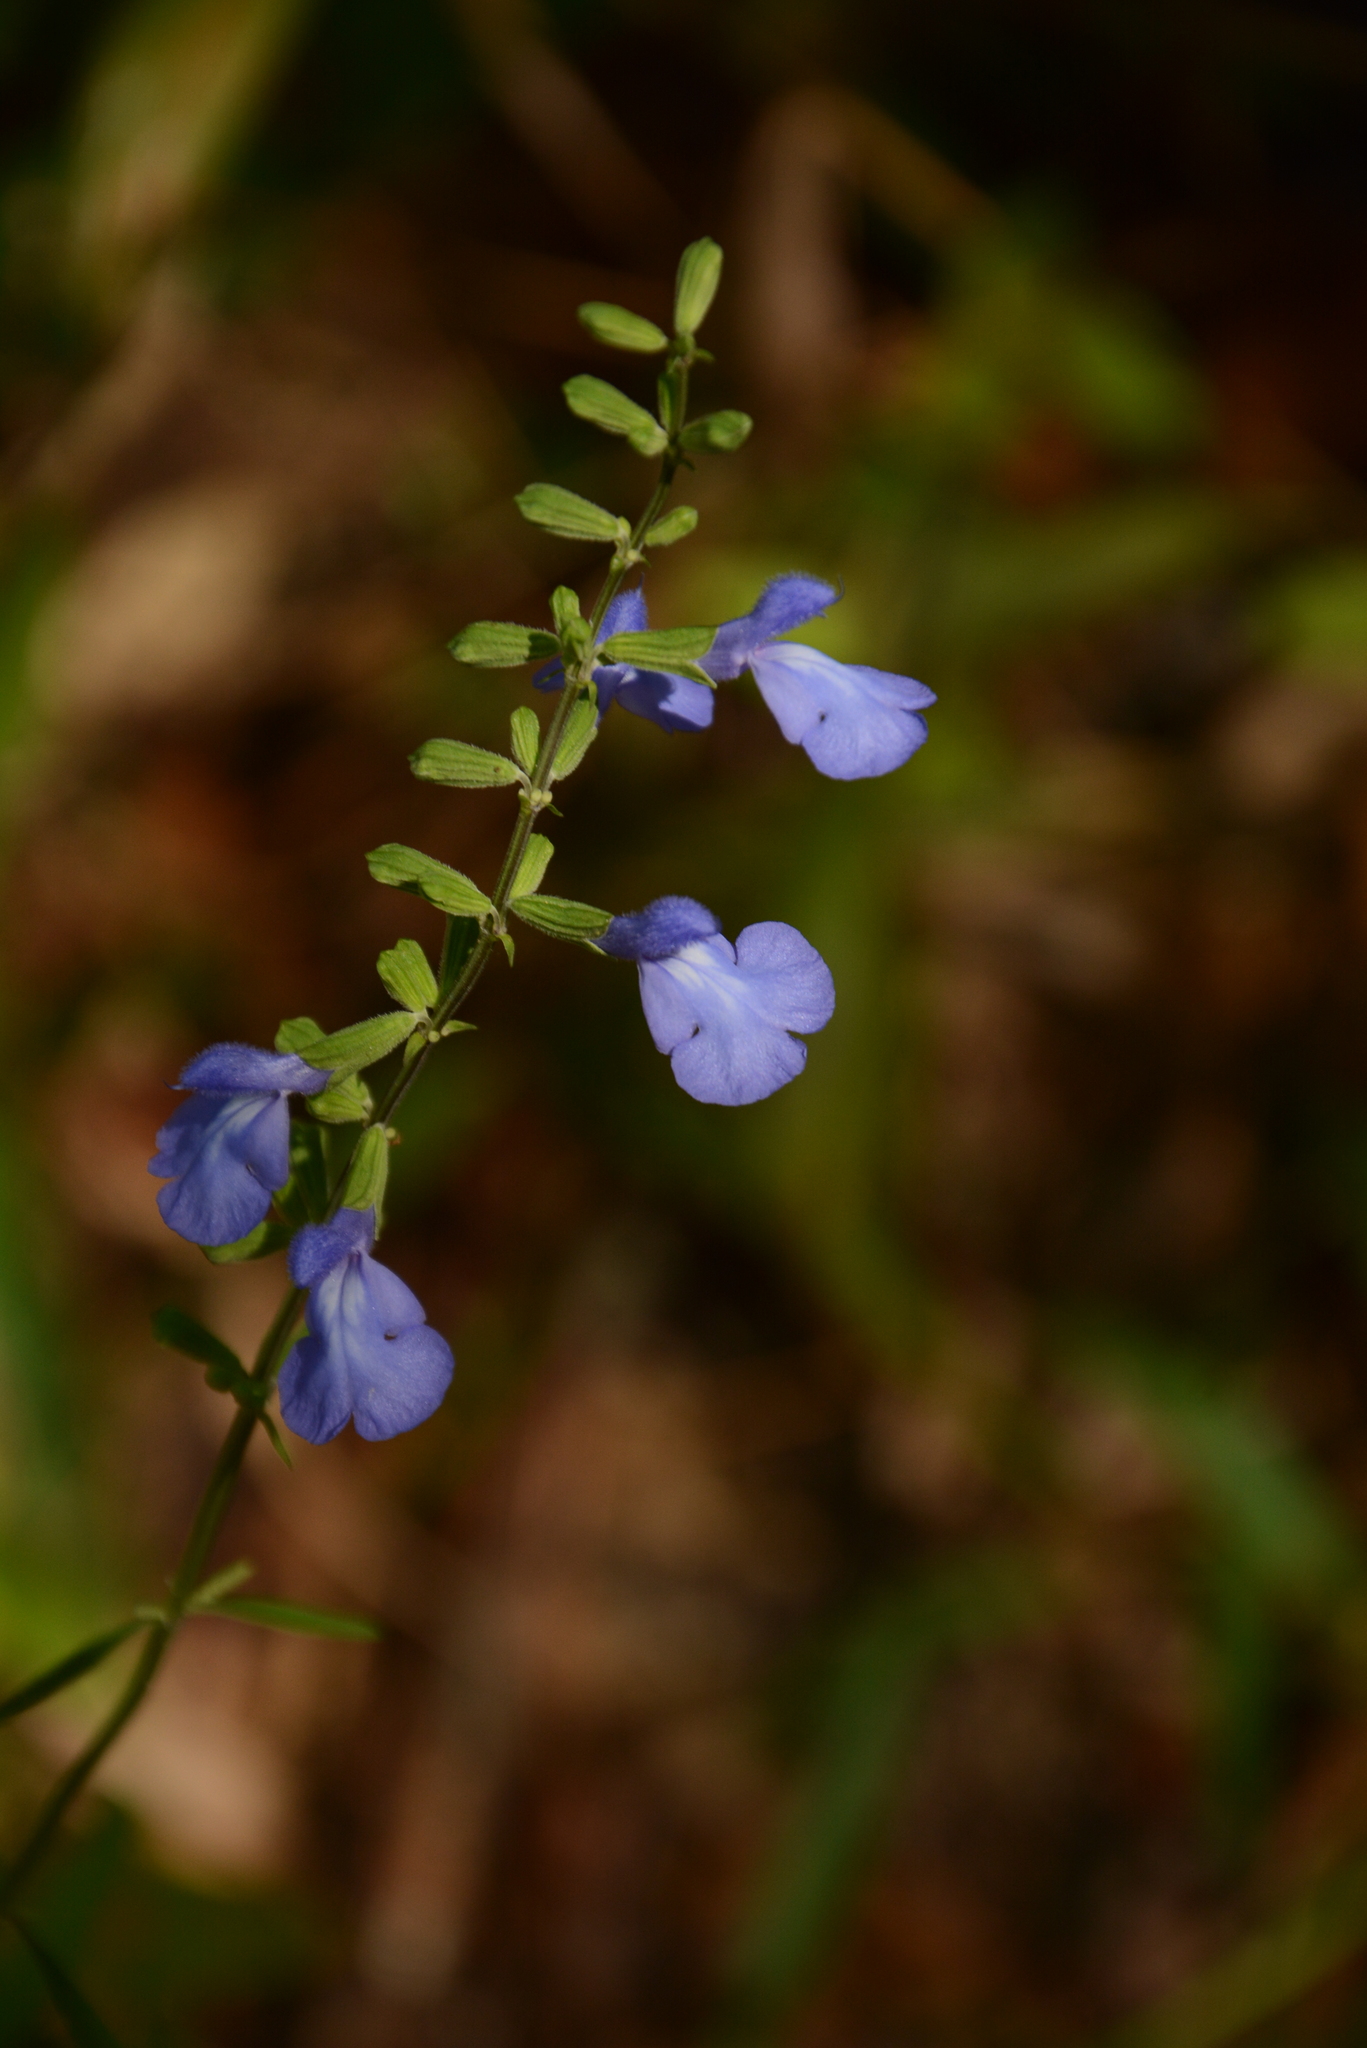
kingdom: Plantae
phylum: Tracheophyta
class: Magnoliopsida
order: Lamiales
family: Lamiaceae
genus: Salvia
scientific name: Salvia azurea
